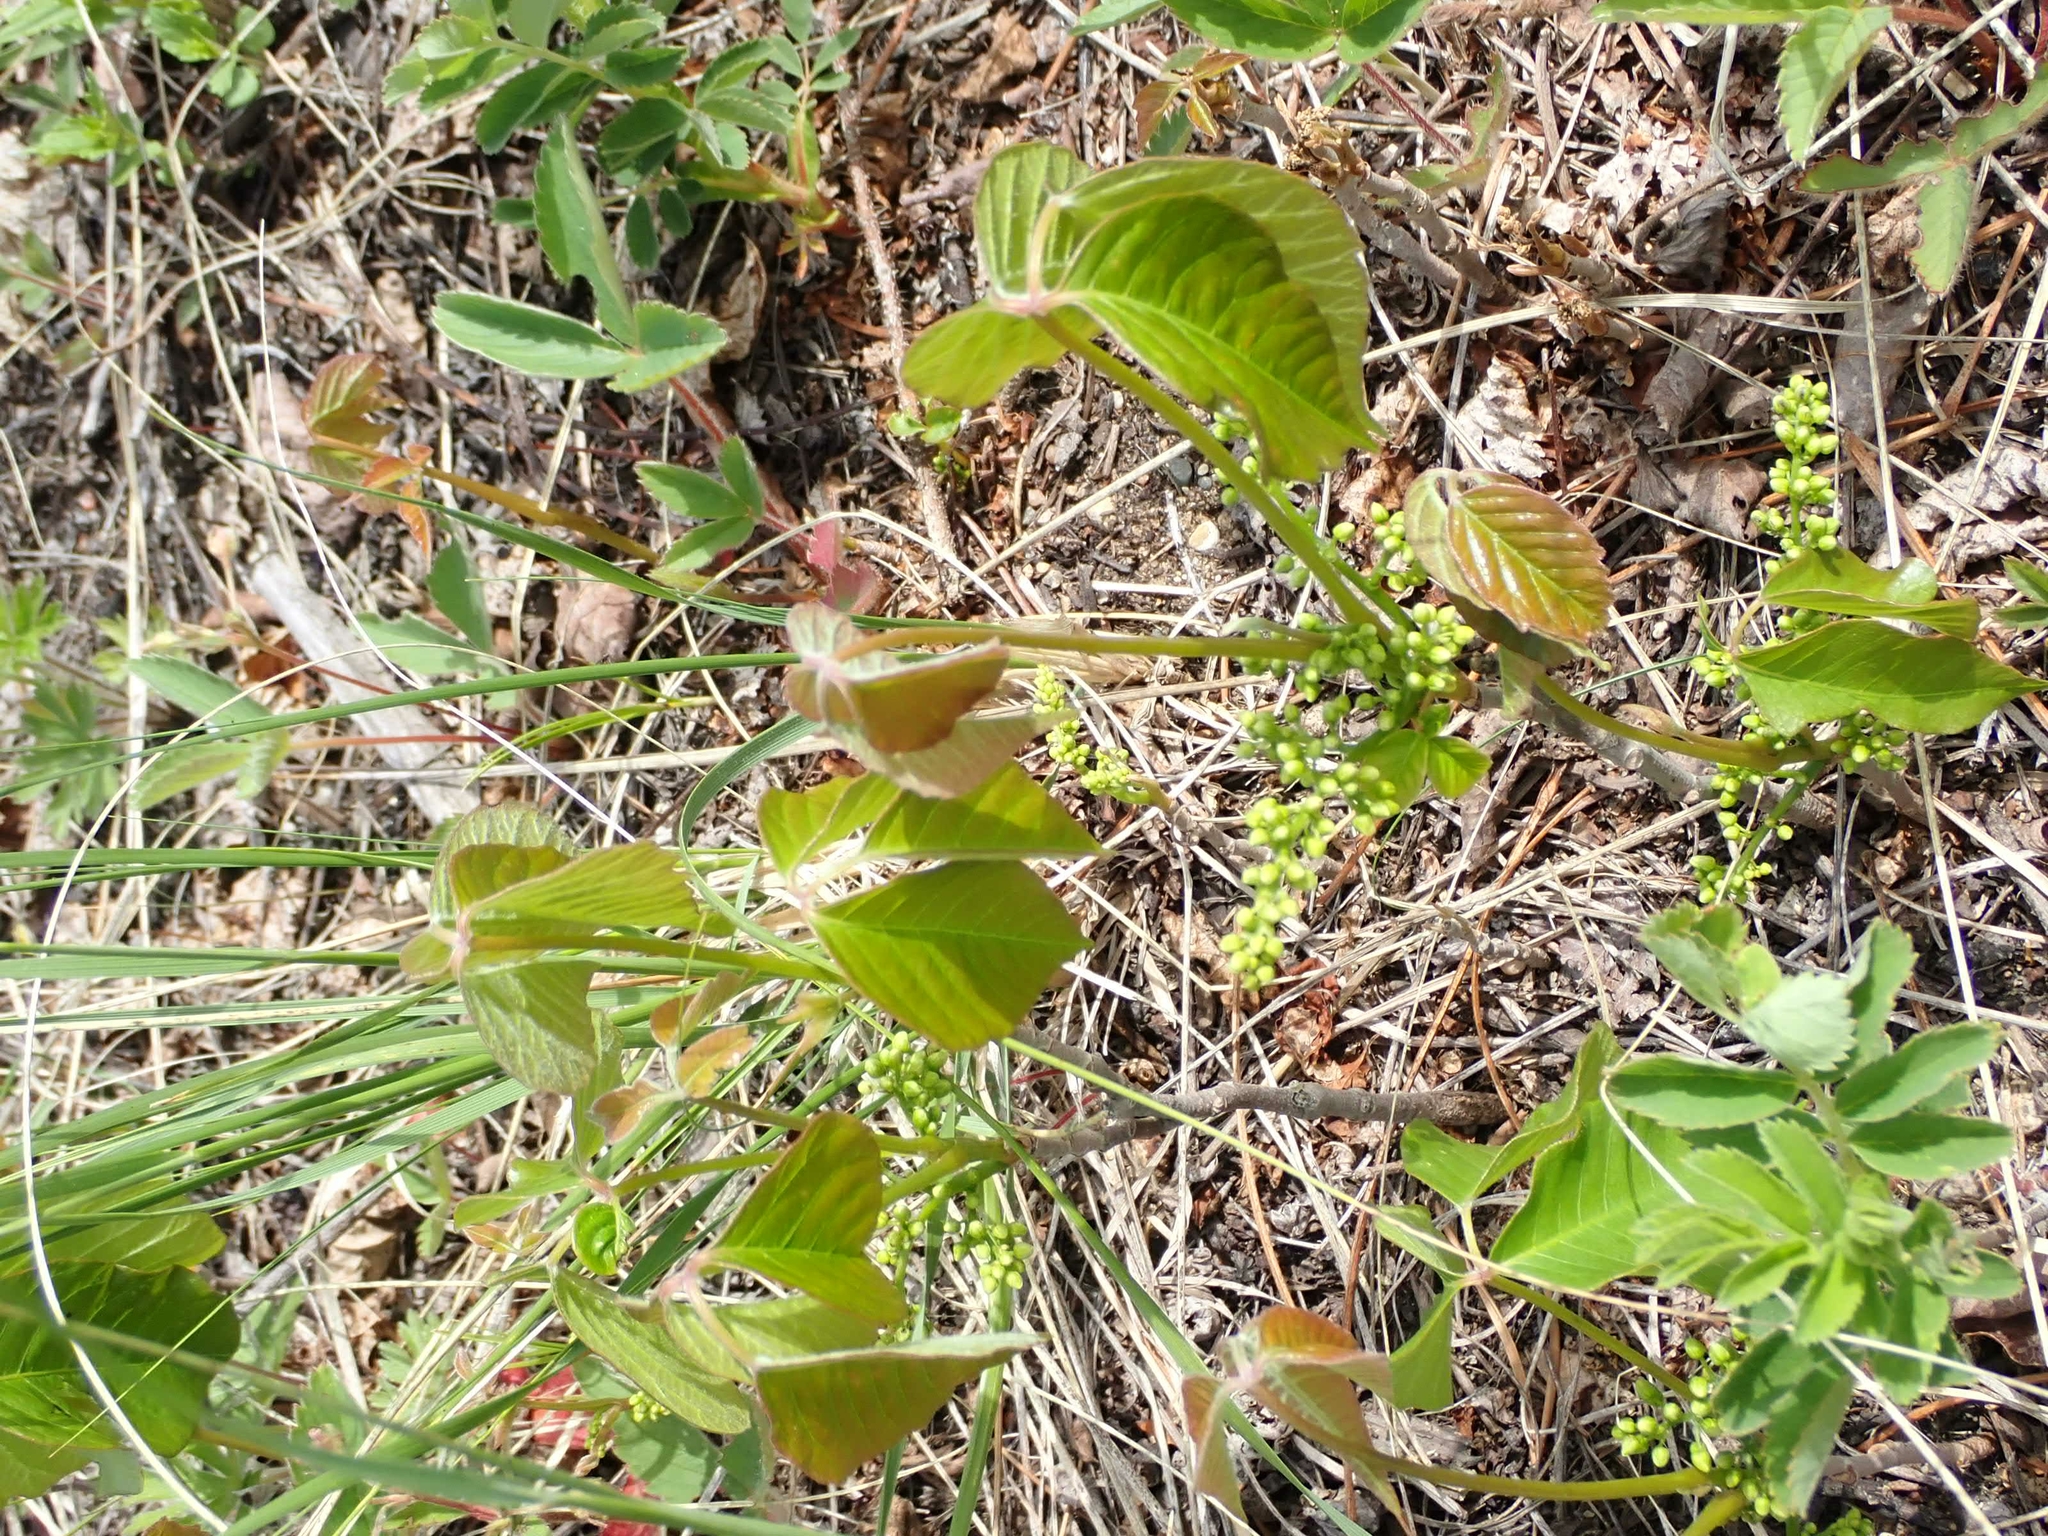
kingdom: Plantae
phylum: Tracheophyta
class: Magnoliopsida
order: Sapindales
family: Anacardiaceae
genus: Toxicodendron
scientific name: Toxicodendron rydbergii
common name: Rydberg's poison-ivy
